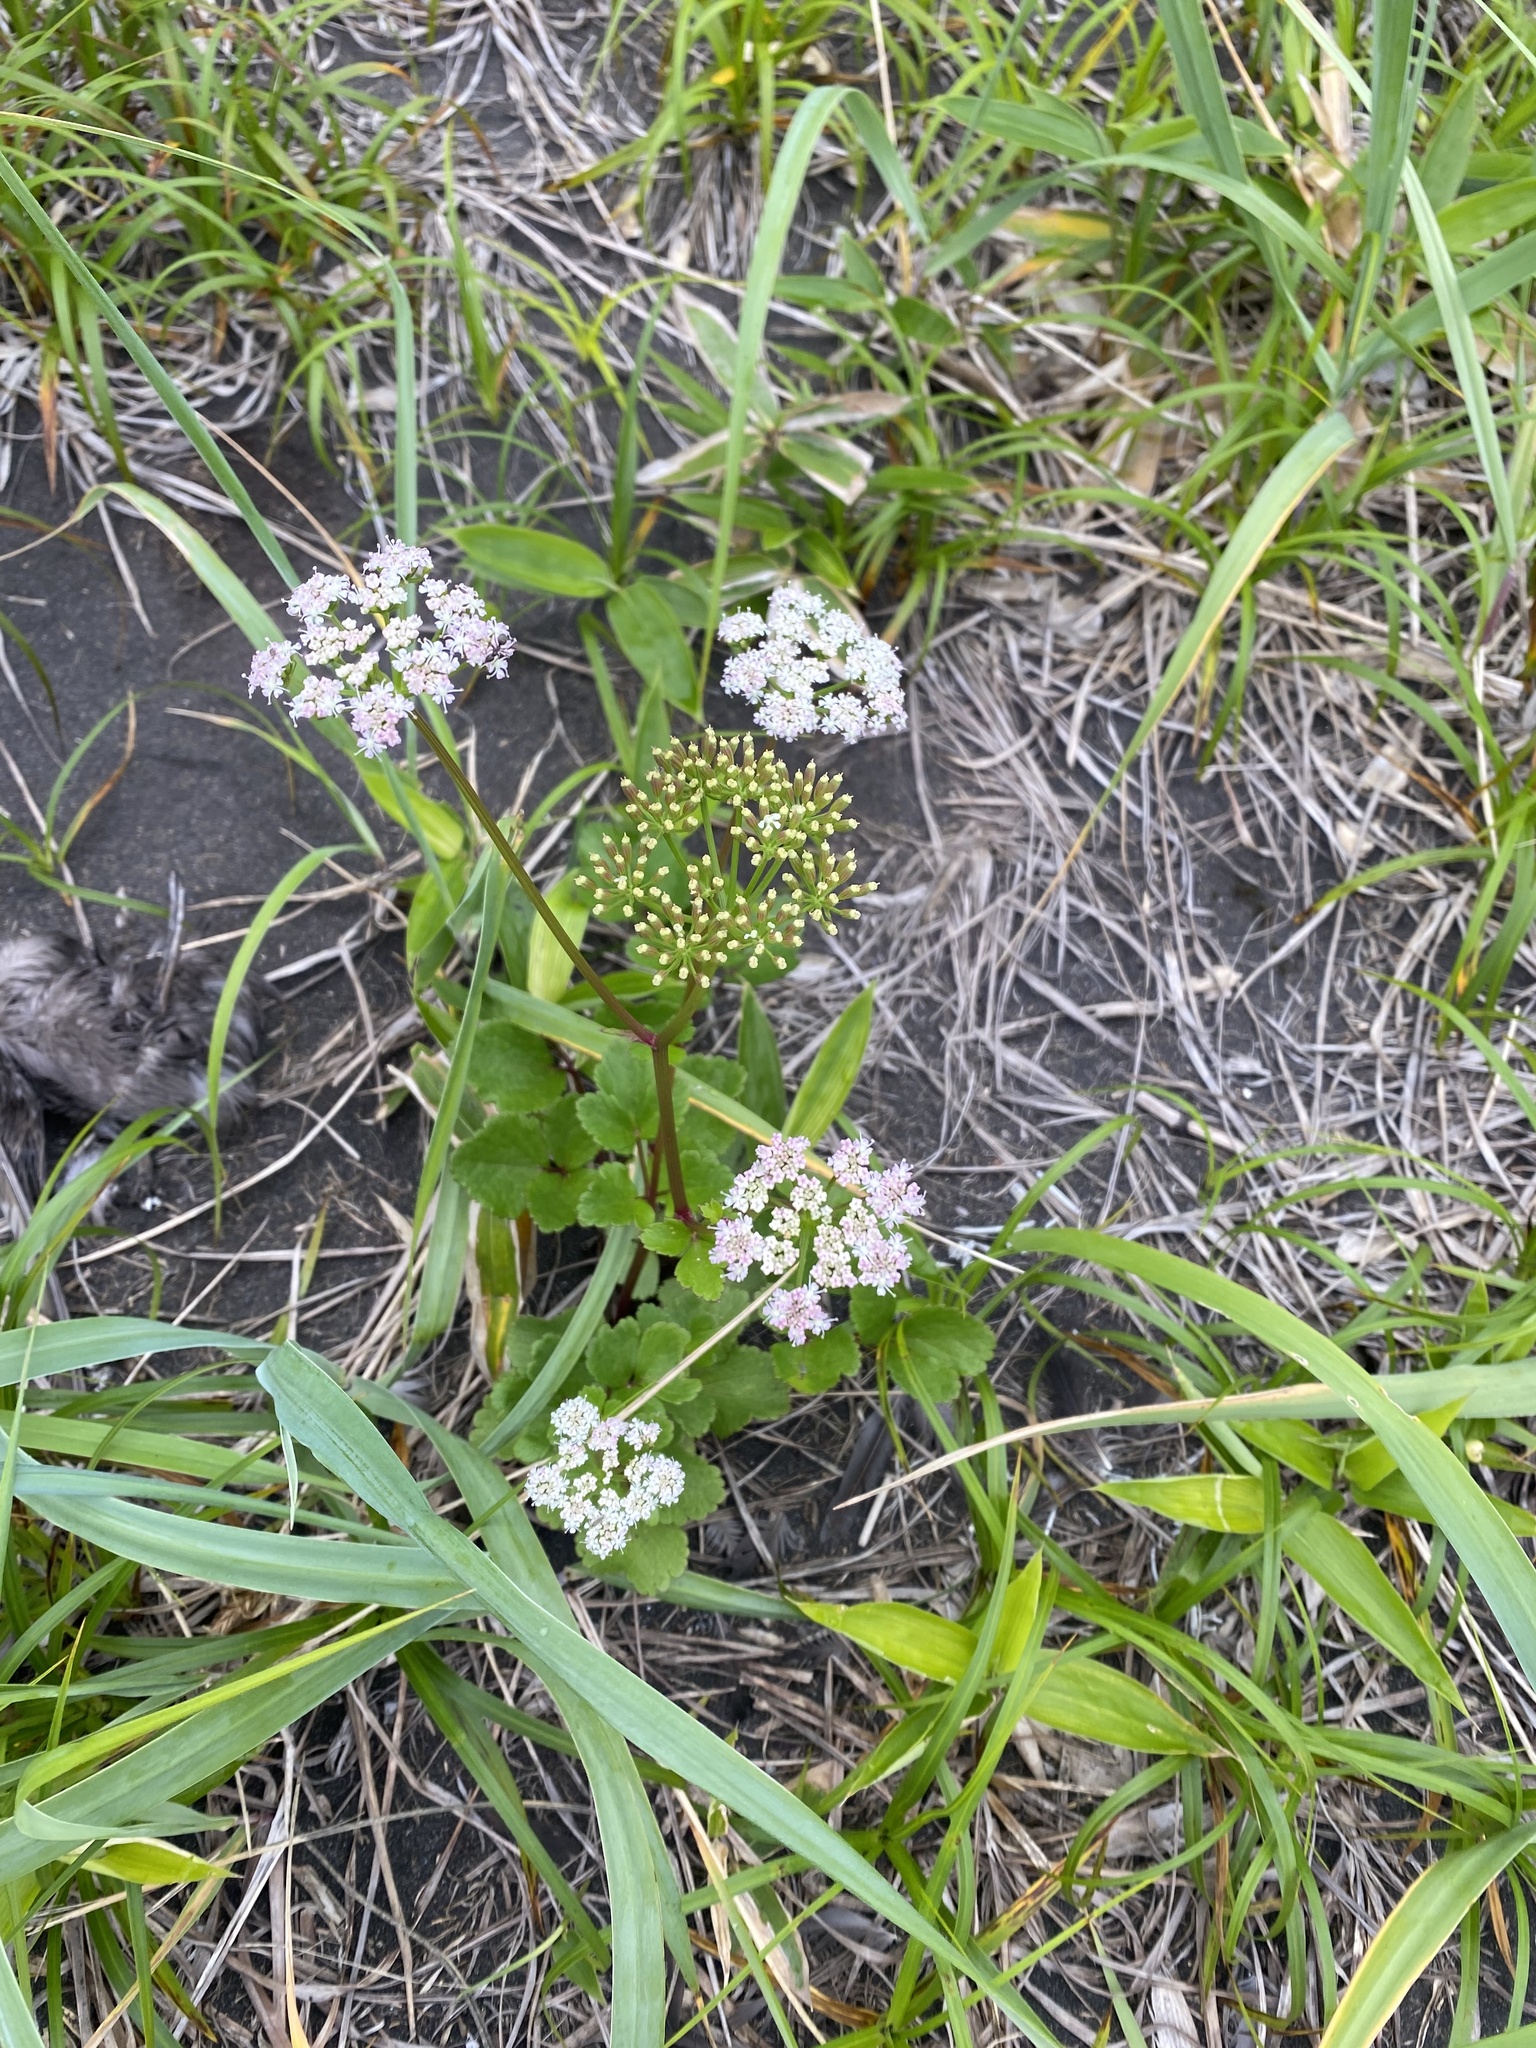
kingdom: Plantae
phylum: Tracheophyta
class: Magnoliopsida
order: Apiales
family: Apiaceae
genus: Ligusticum
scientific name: Ligusticum scothicum
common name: Beach lovage
